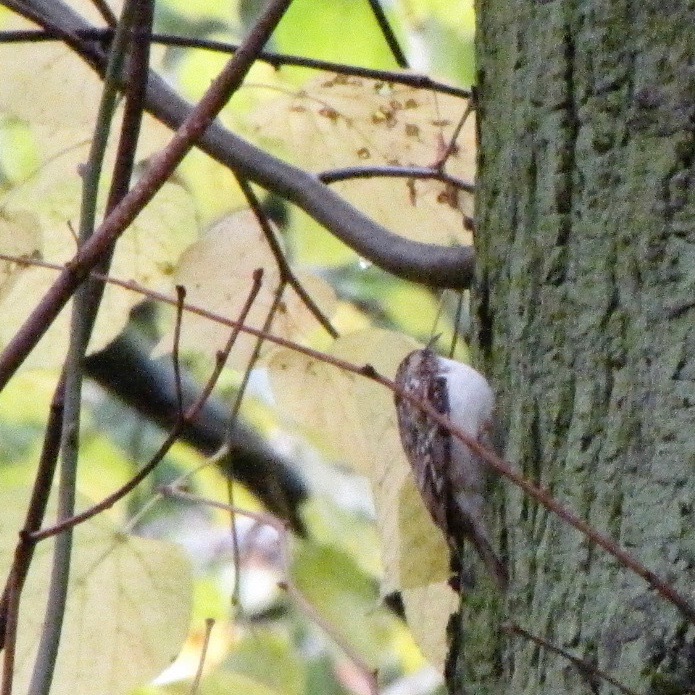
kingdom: Animalia
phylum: Chordata
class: Aves
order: Passeriformes
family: Certhiidae
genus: Certhia
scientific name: Certhia familiaris
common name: Eurasian treecreeper
